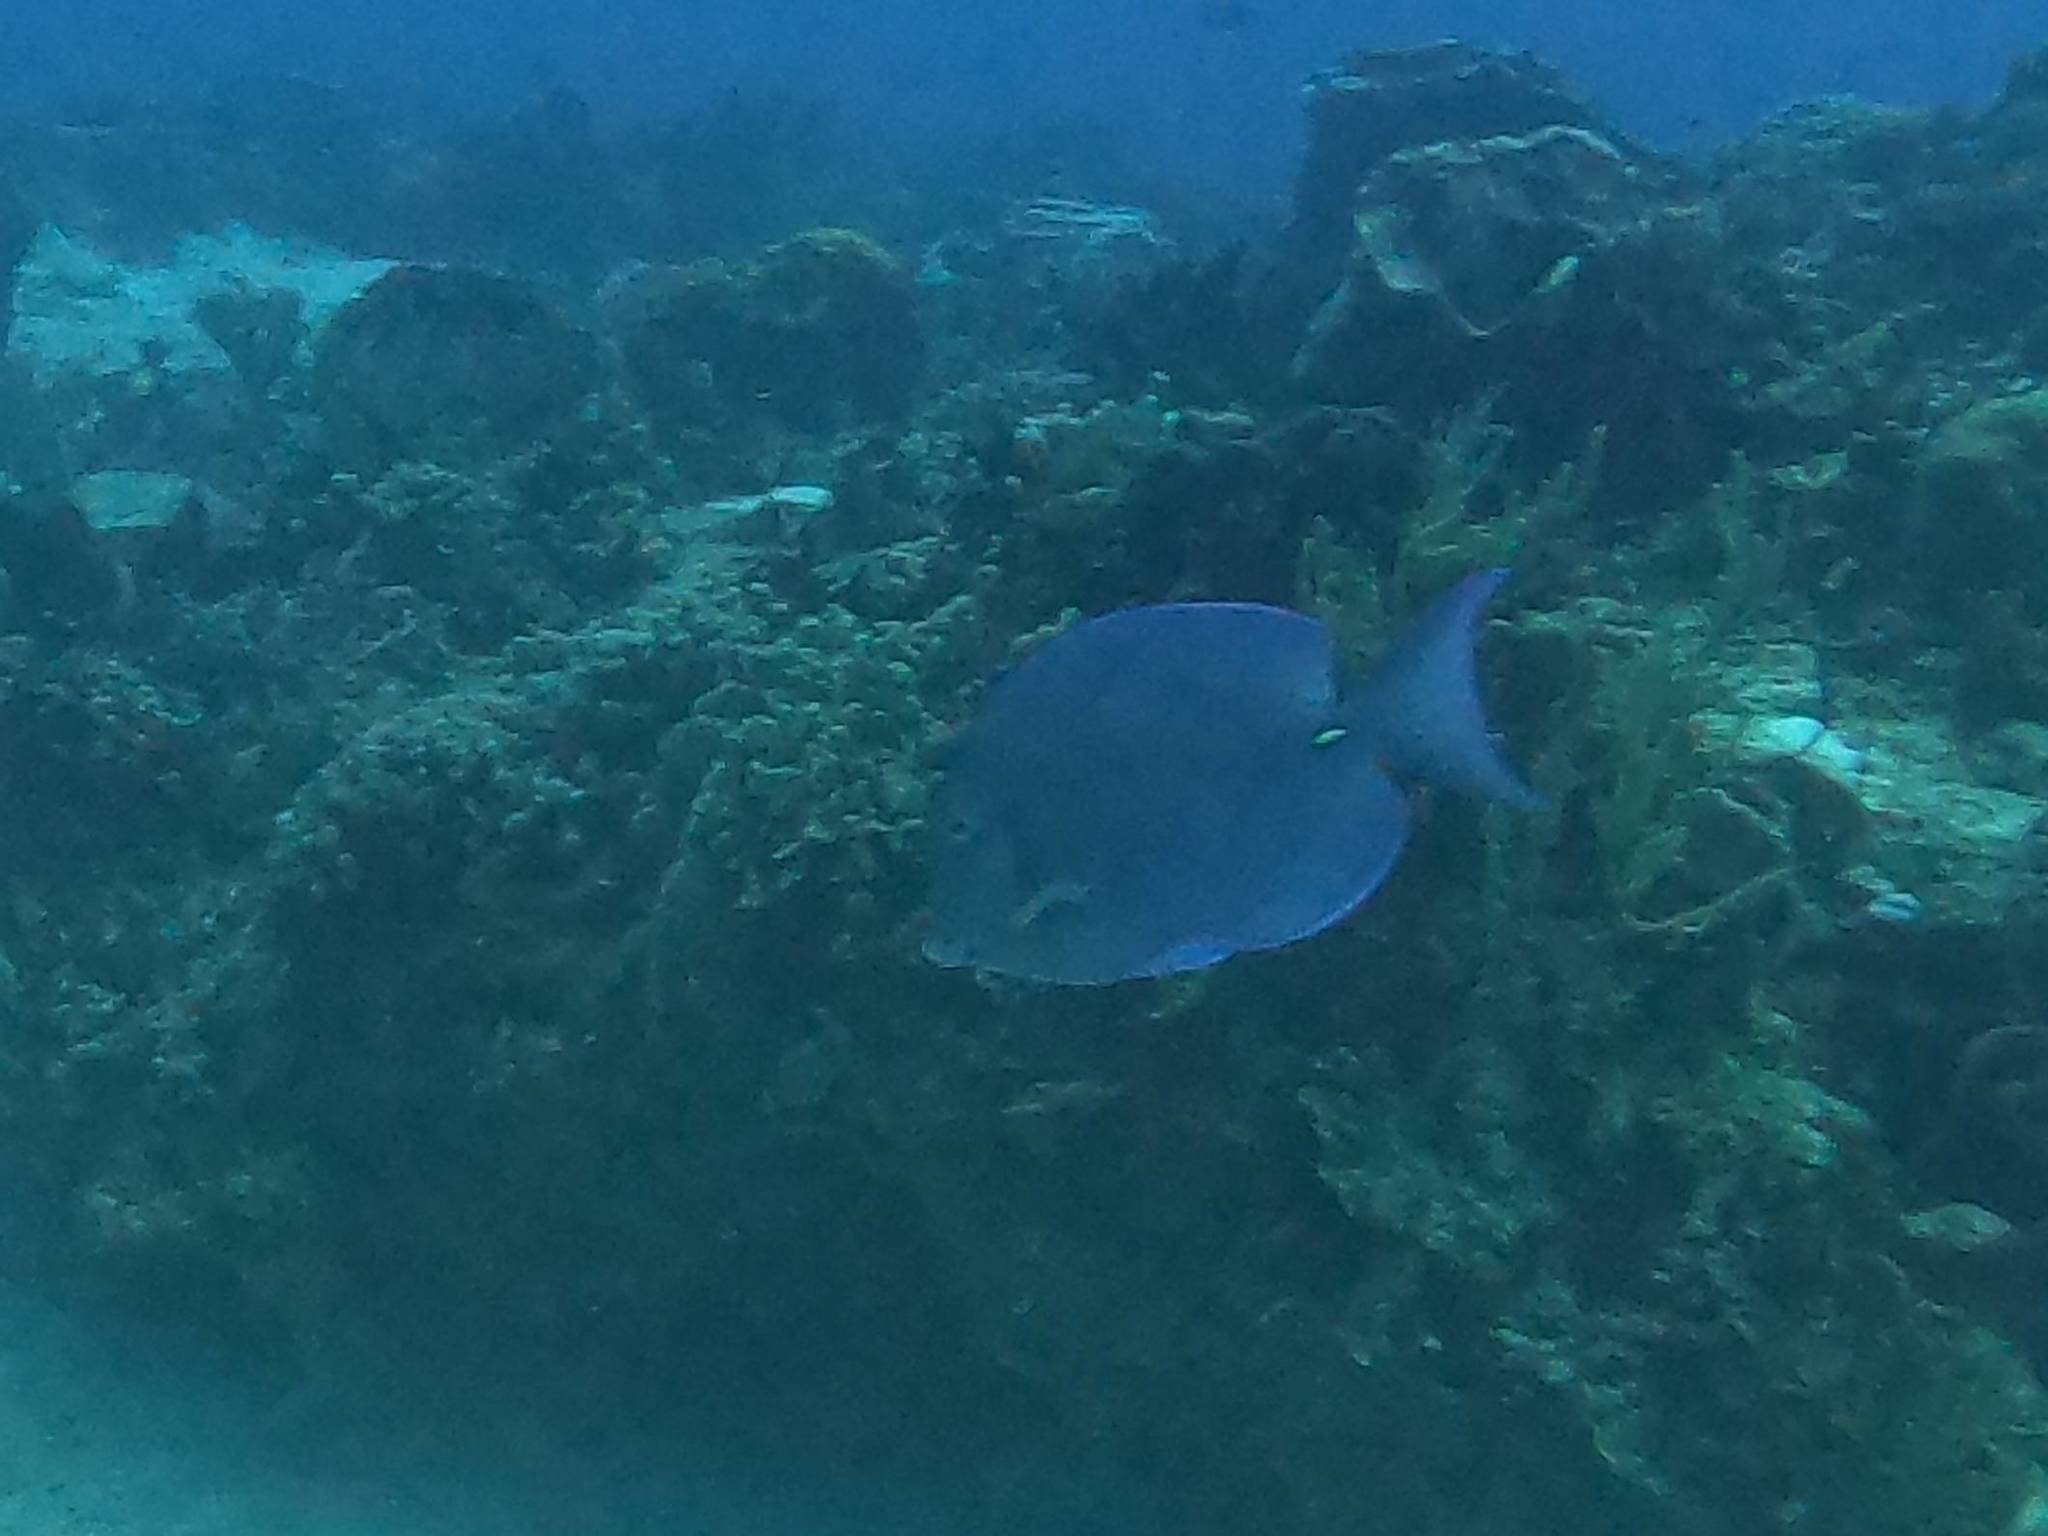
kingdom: Animalia
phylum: Chordata
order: Perciformes
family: Acanthuridae
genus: Acanthurus
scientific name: Acanthurus coeruleus
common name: Blue tang
